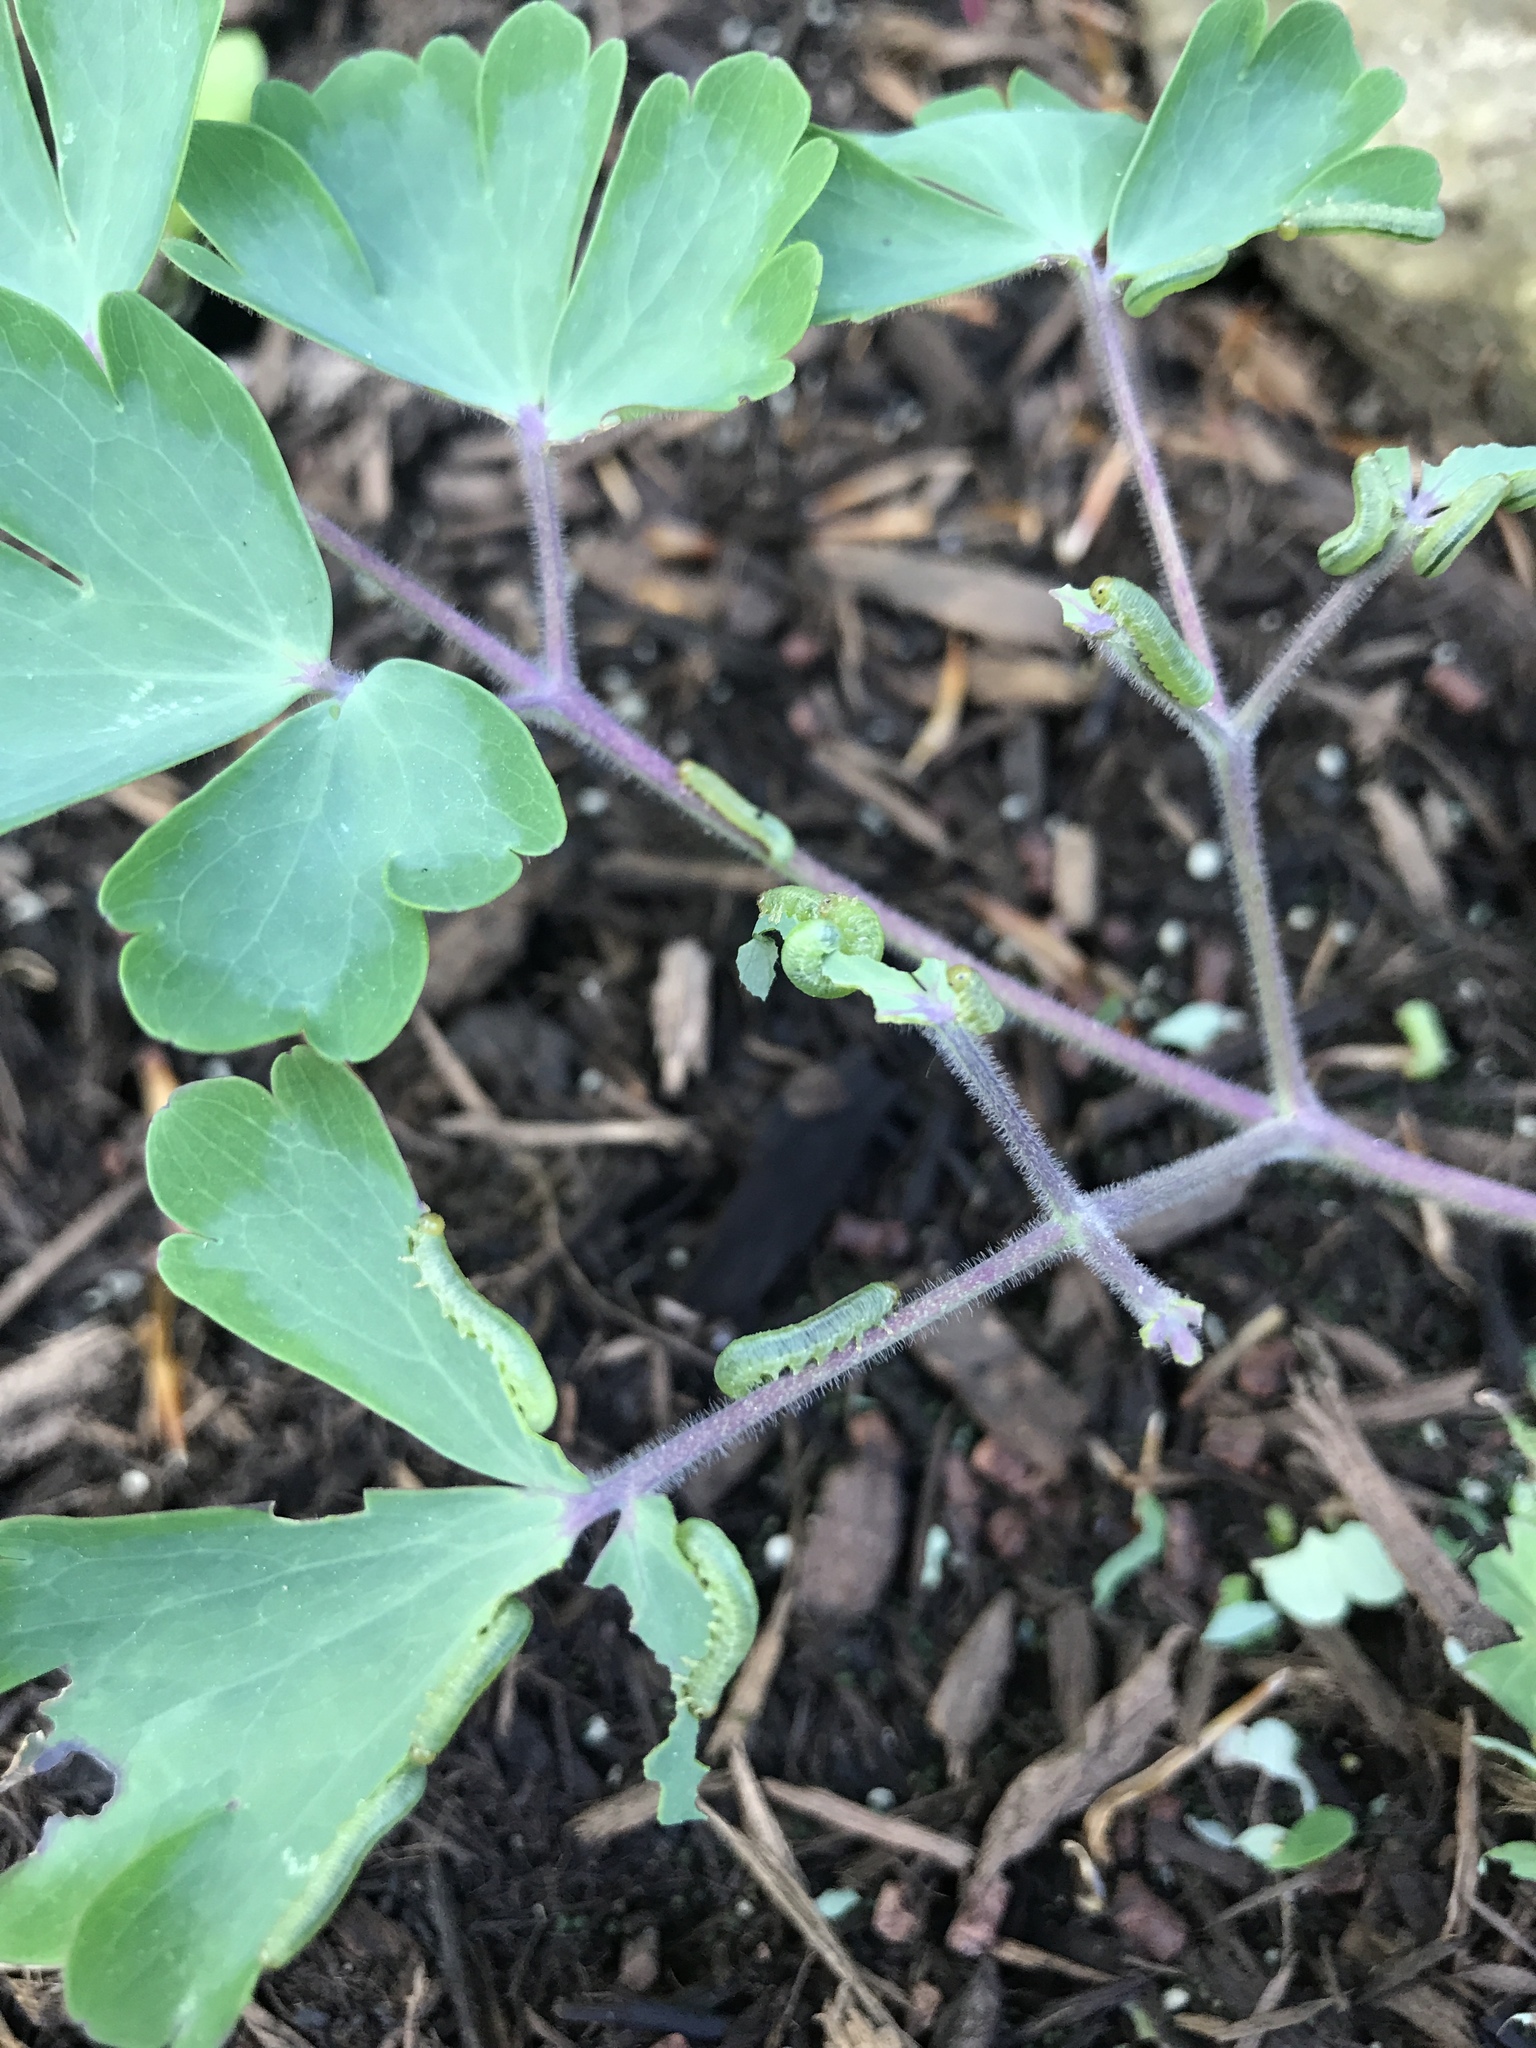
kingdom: Animalia
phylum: Arthropoda
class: Insecta
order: Hymenoptera
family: Tenthredinidae
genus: Pristiphora
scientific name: Pristiphora rufipes
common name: Sawfly
